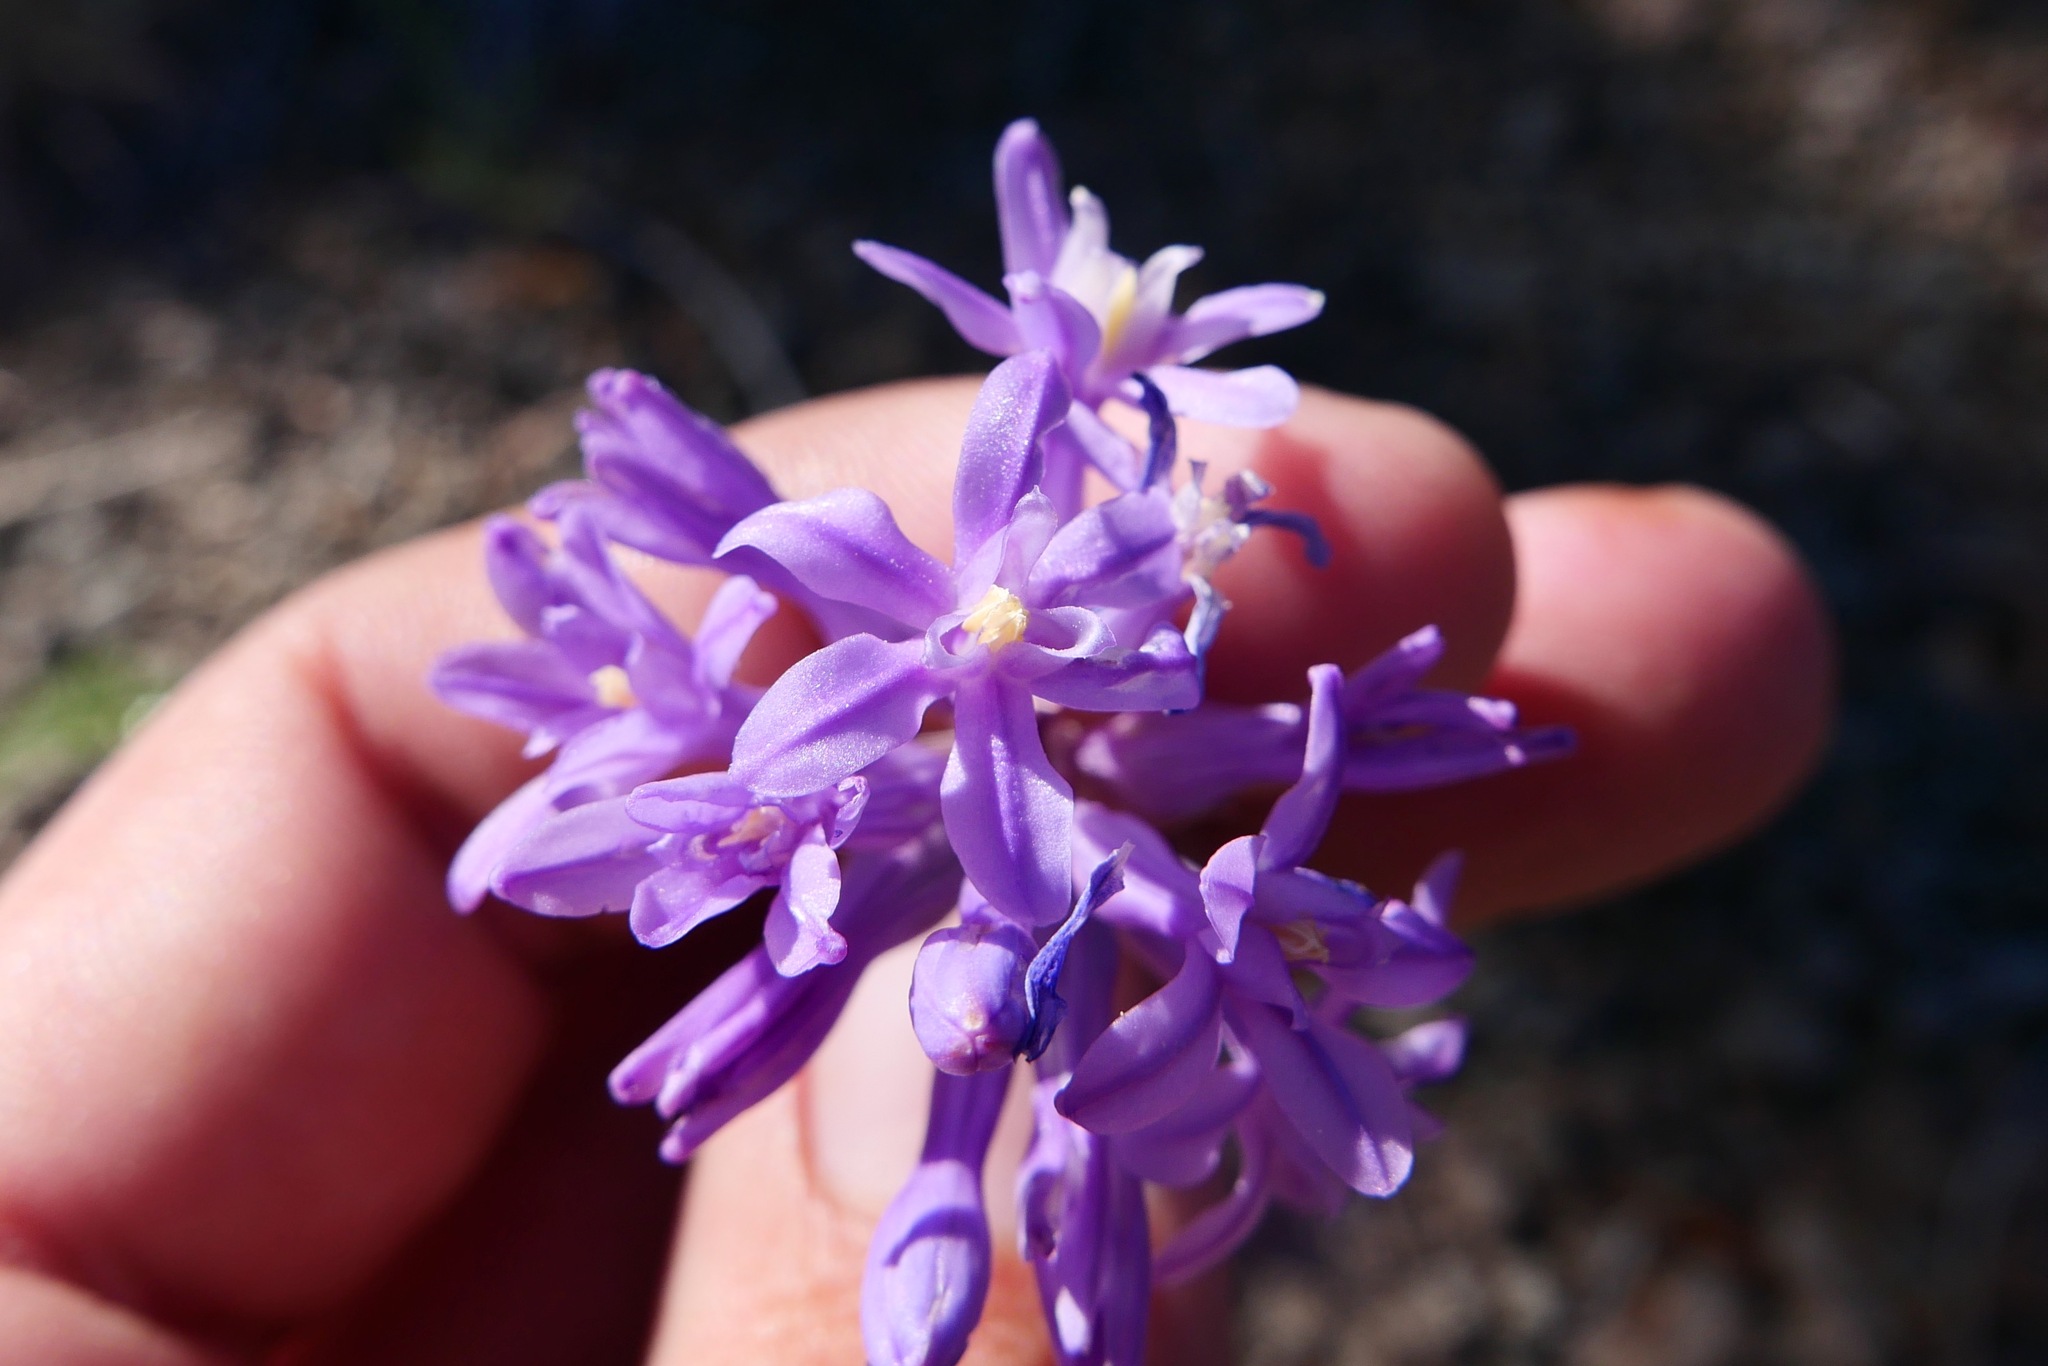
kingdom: Plantae
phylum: Tracheophyta
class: Liliopsida
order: Asparagales
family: Asparagaceae
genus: Dichelostemma
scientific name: Dichelostemma multiflorum
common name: Round-tooth ookow
